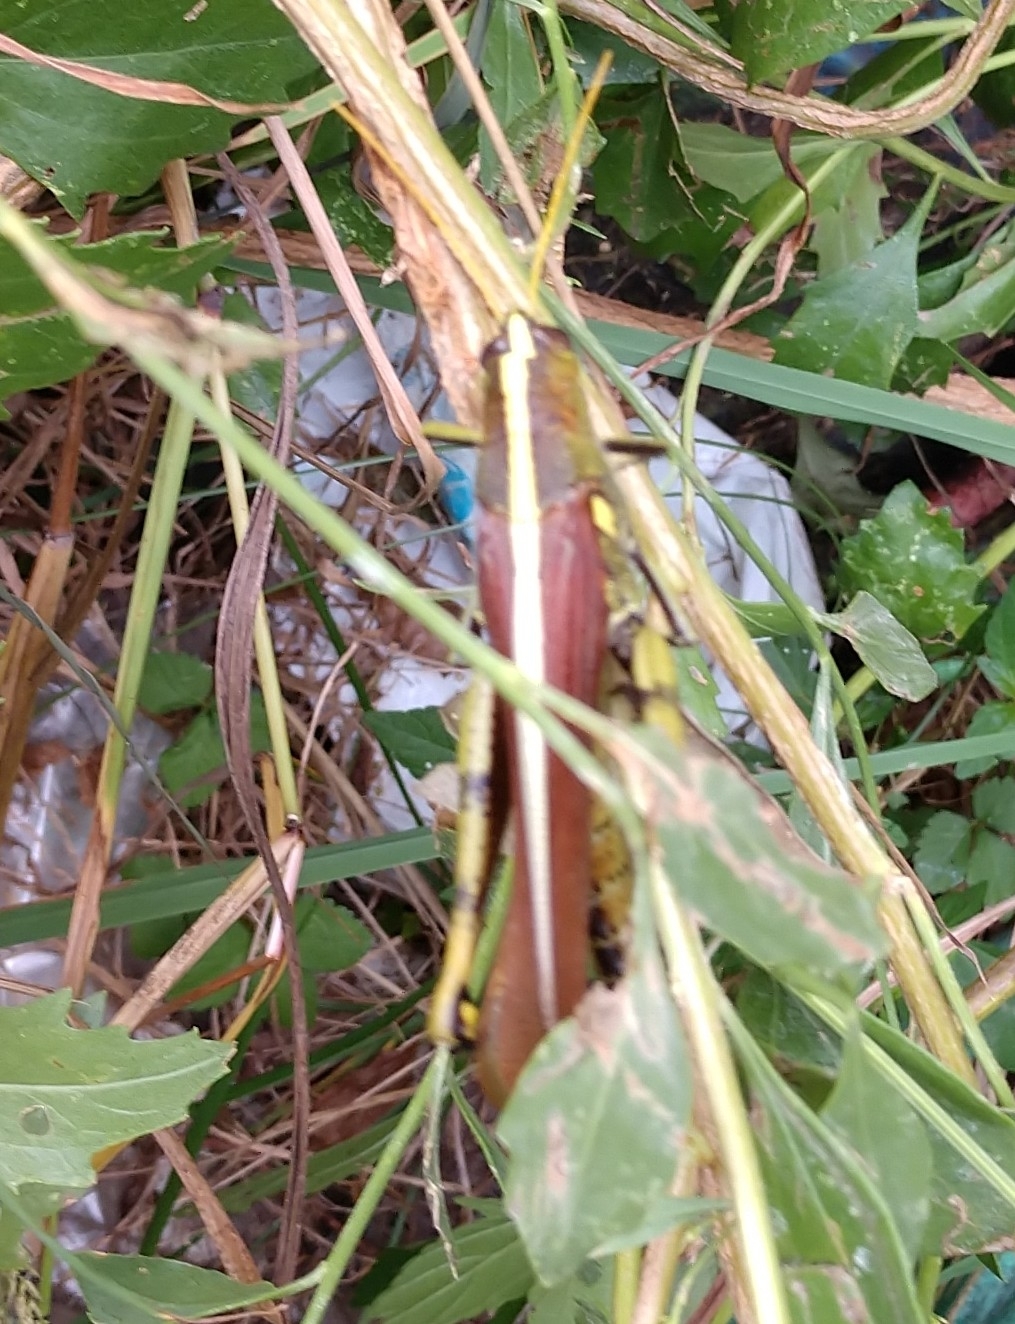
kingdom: Animalia
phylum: Arthropoda
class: Insecta
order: Orthoptera
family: Acrididae
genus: Schistocerca
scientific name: Schistocerca obscura
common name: Obscure bird grasshopper
